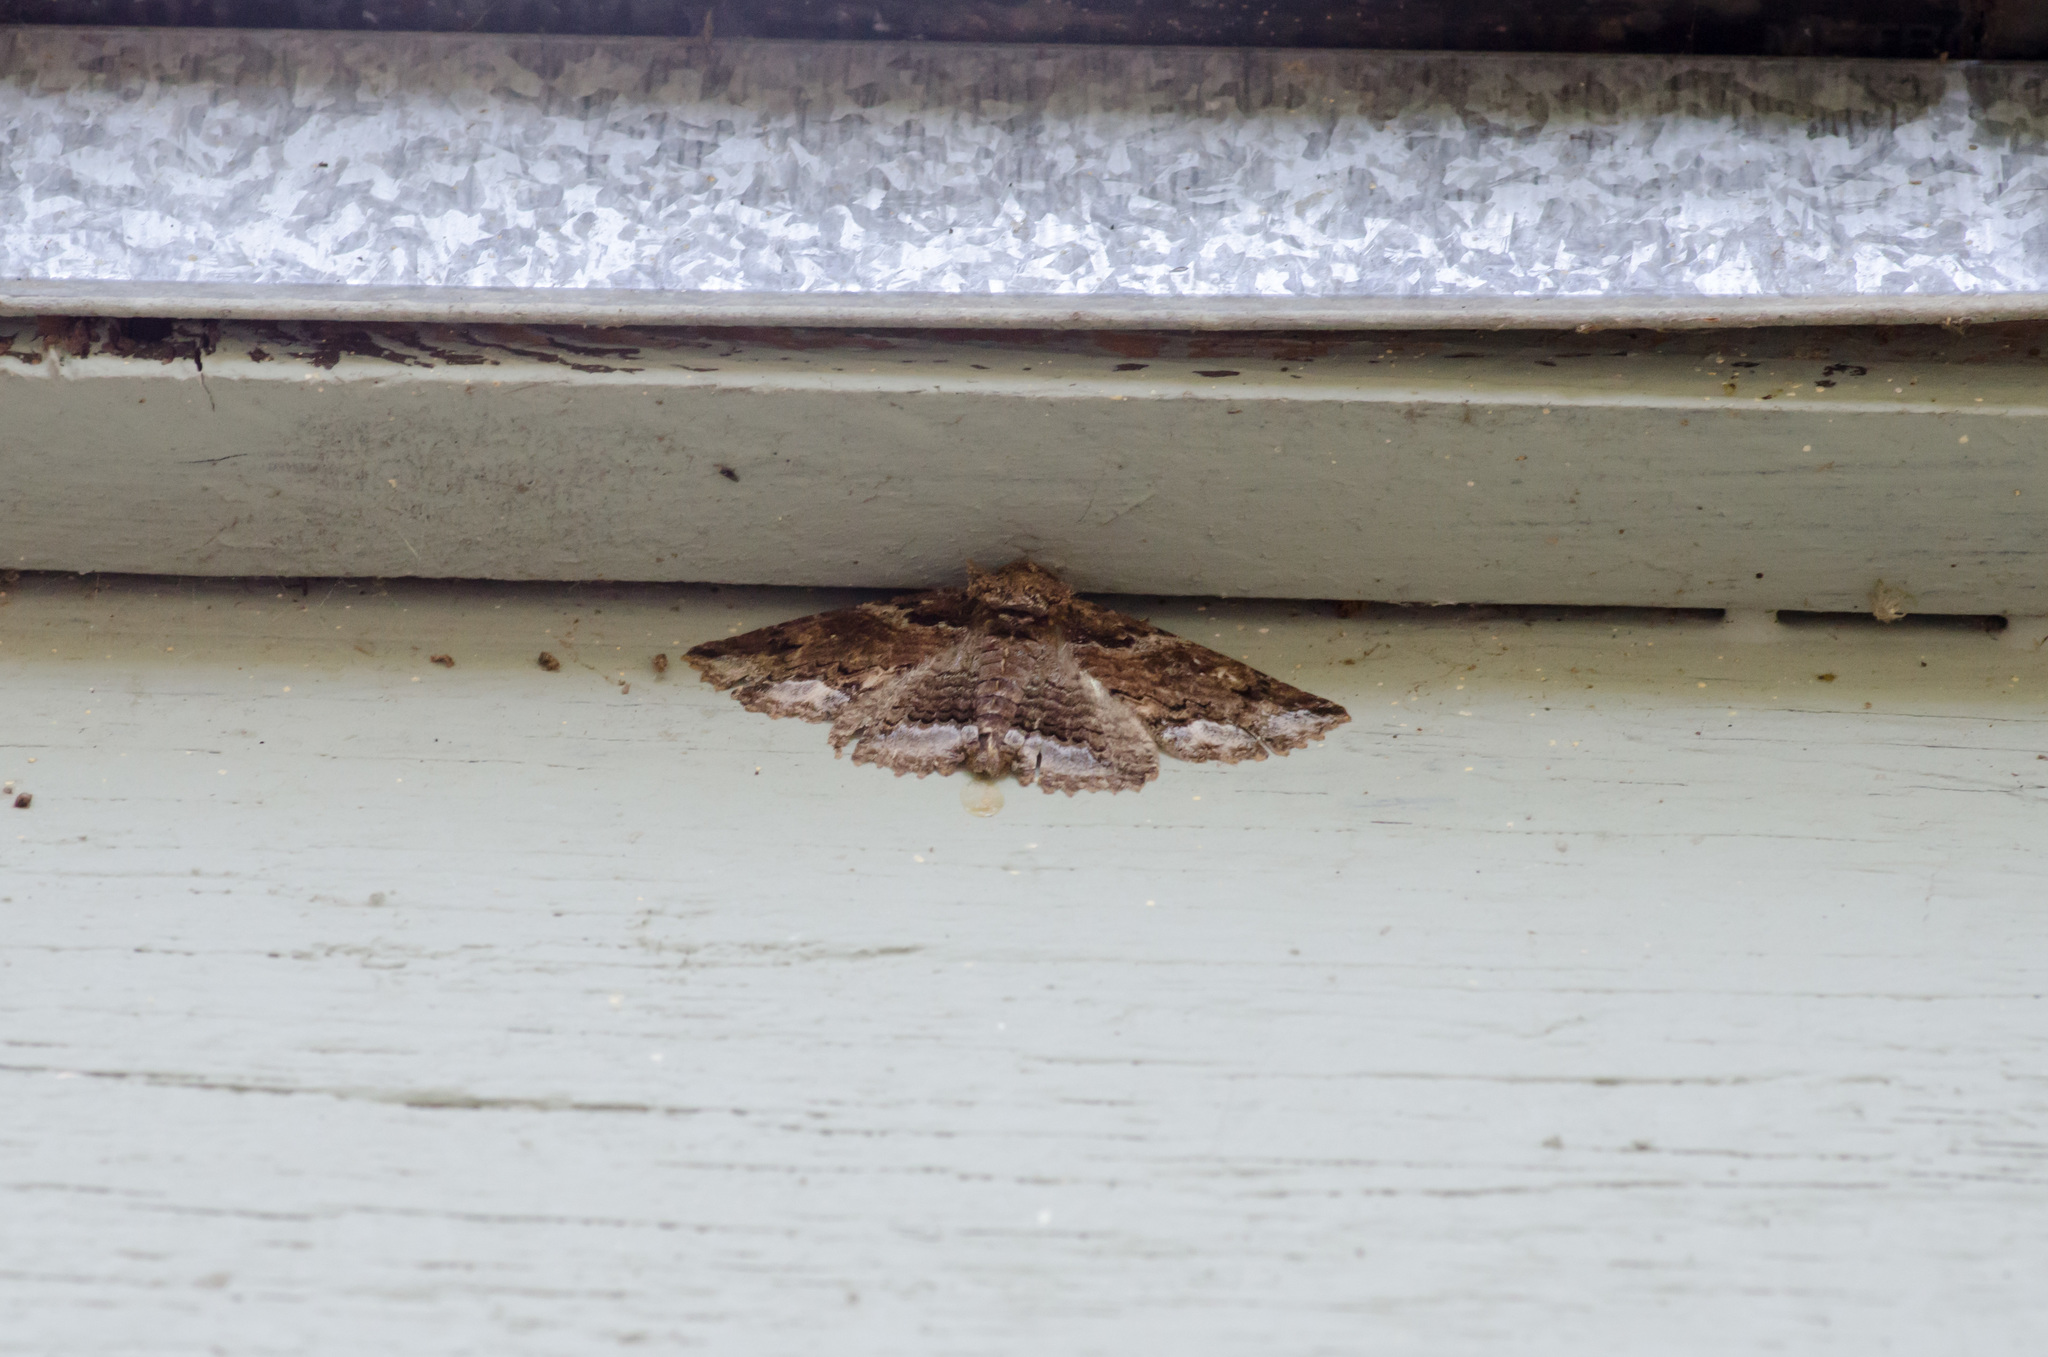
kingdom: Animalia
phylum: Arthropoda
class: Insecta
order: Lepidoptera
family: Erebidae
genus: Zale
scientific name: Zale lunata
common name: Lunate zale moth
